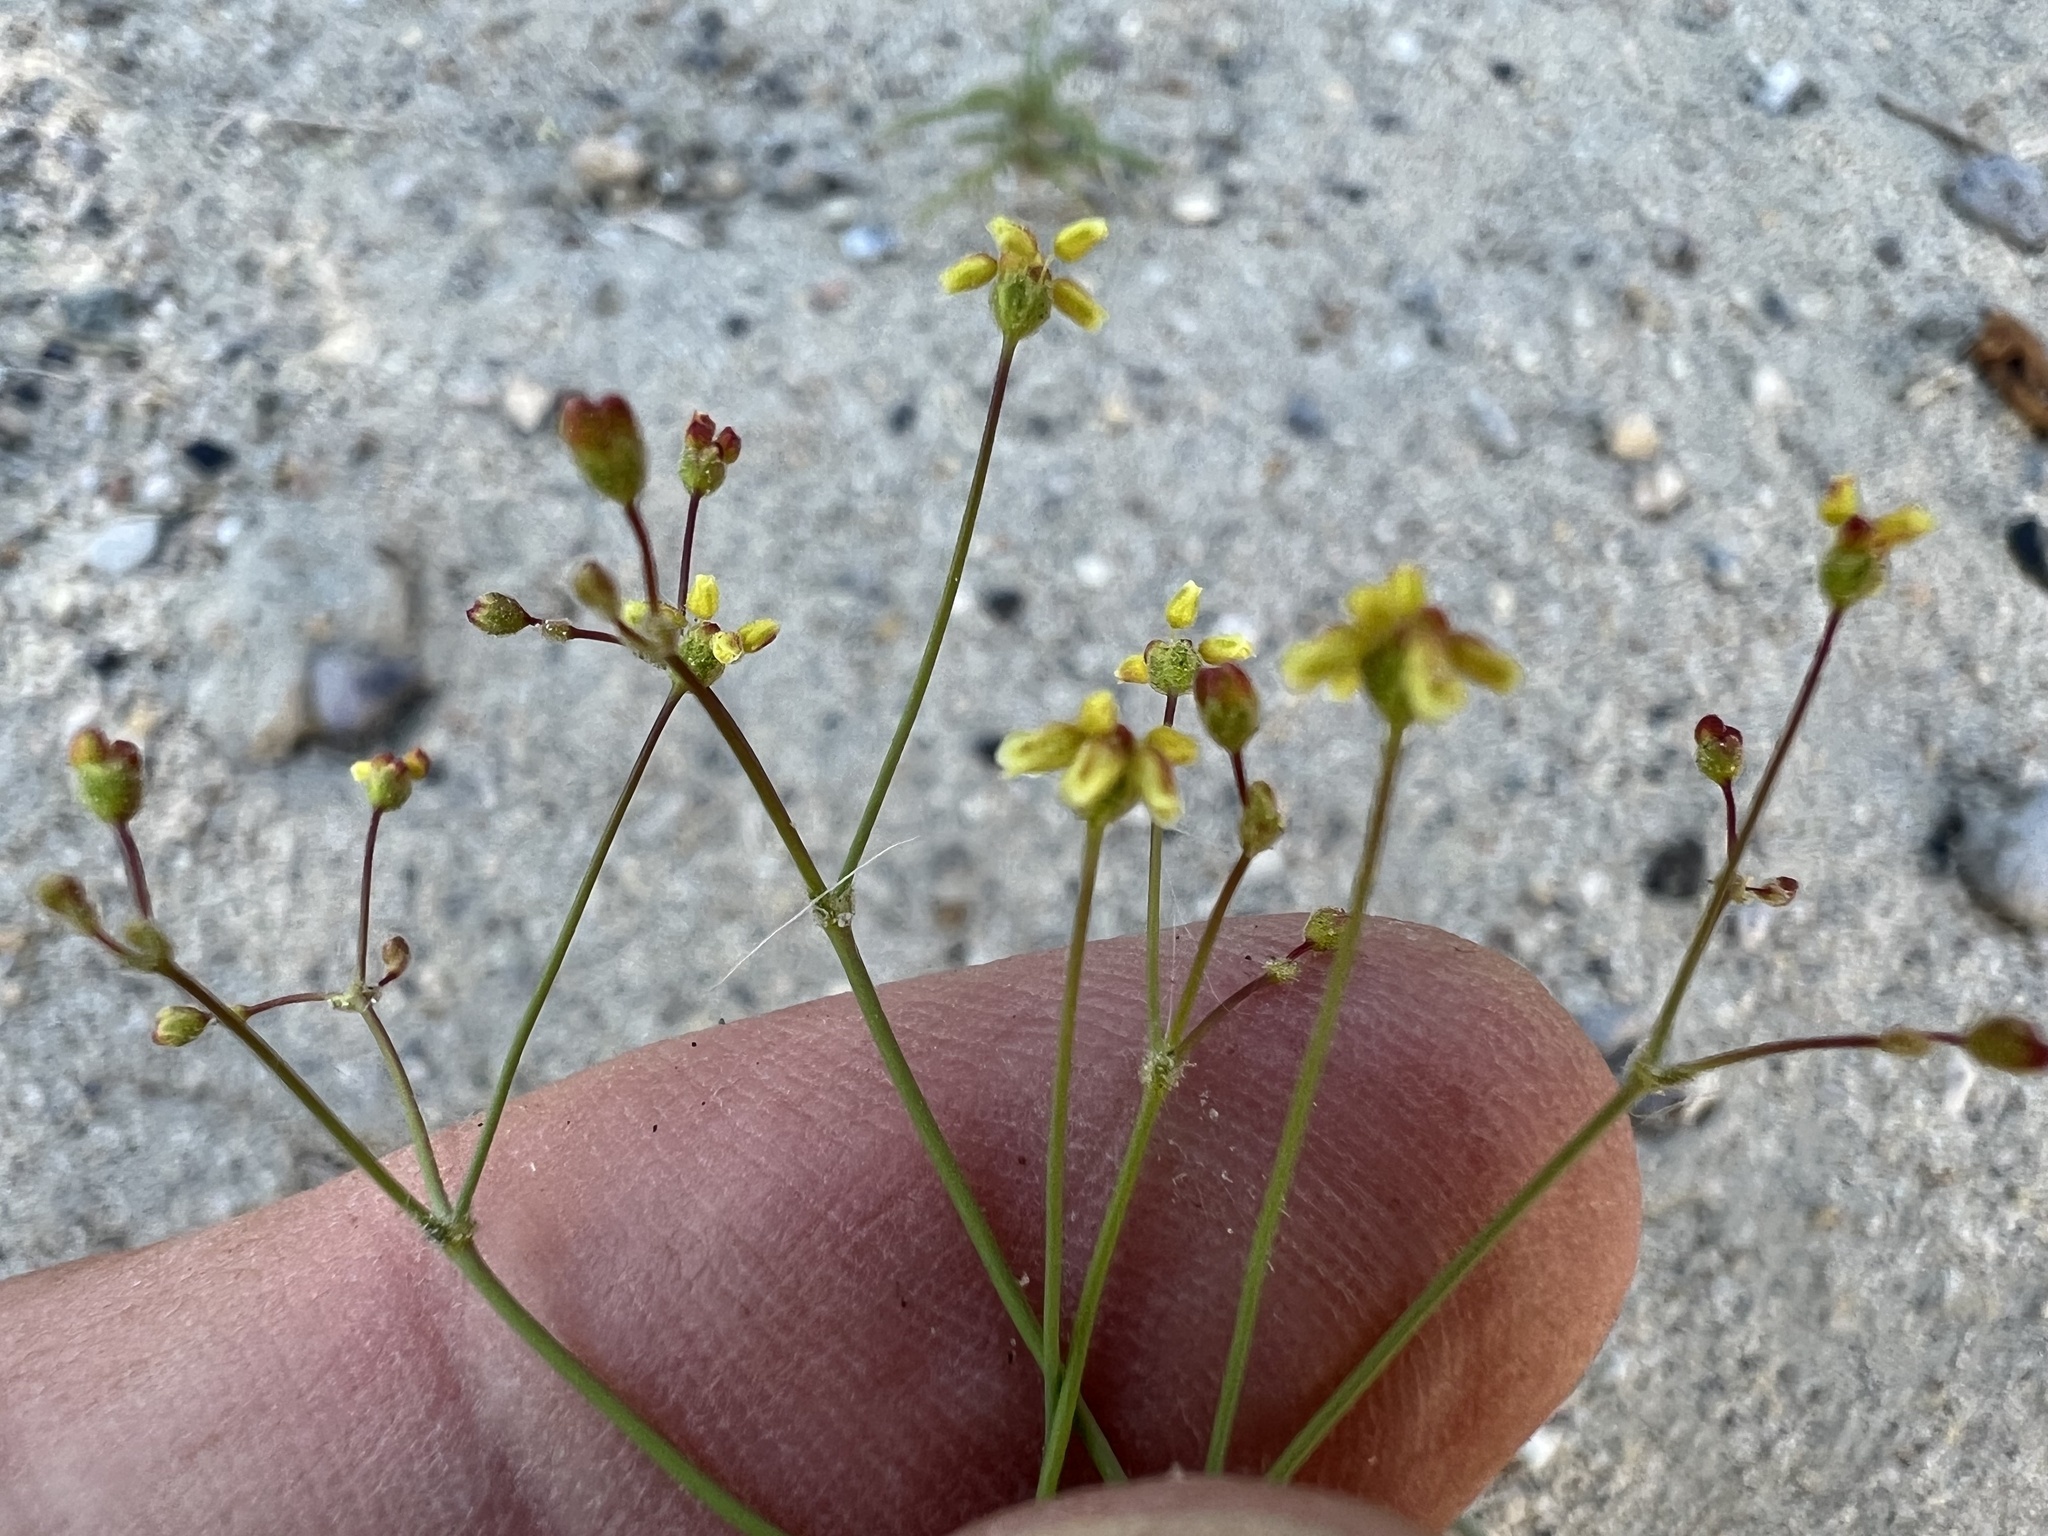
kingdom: Plantae
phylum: Tracheophyta
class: Magnoliopsida
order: Caryophyllales
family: Polygonaceae
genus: Eriogonum
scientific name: Eriogonum pusillum
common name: Yellow turbans
